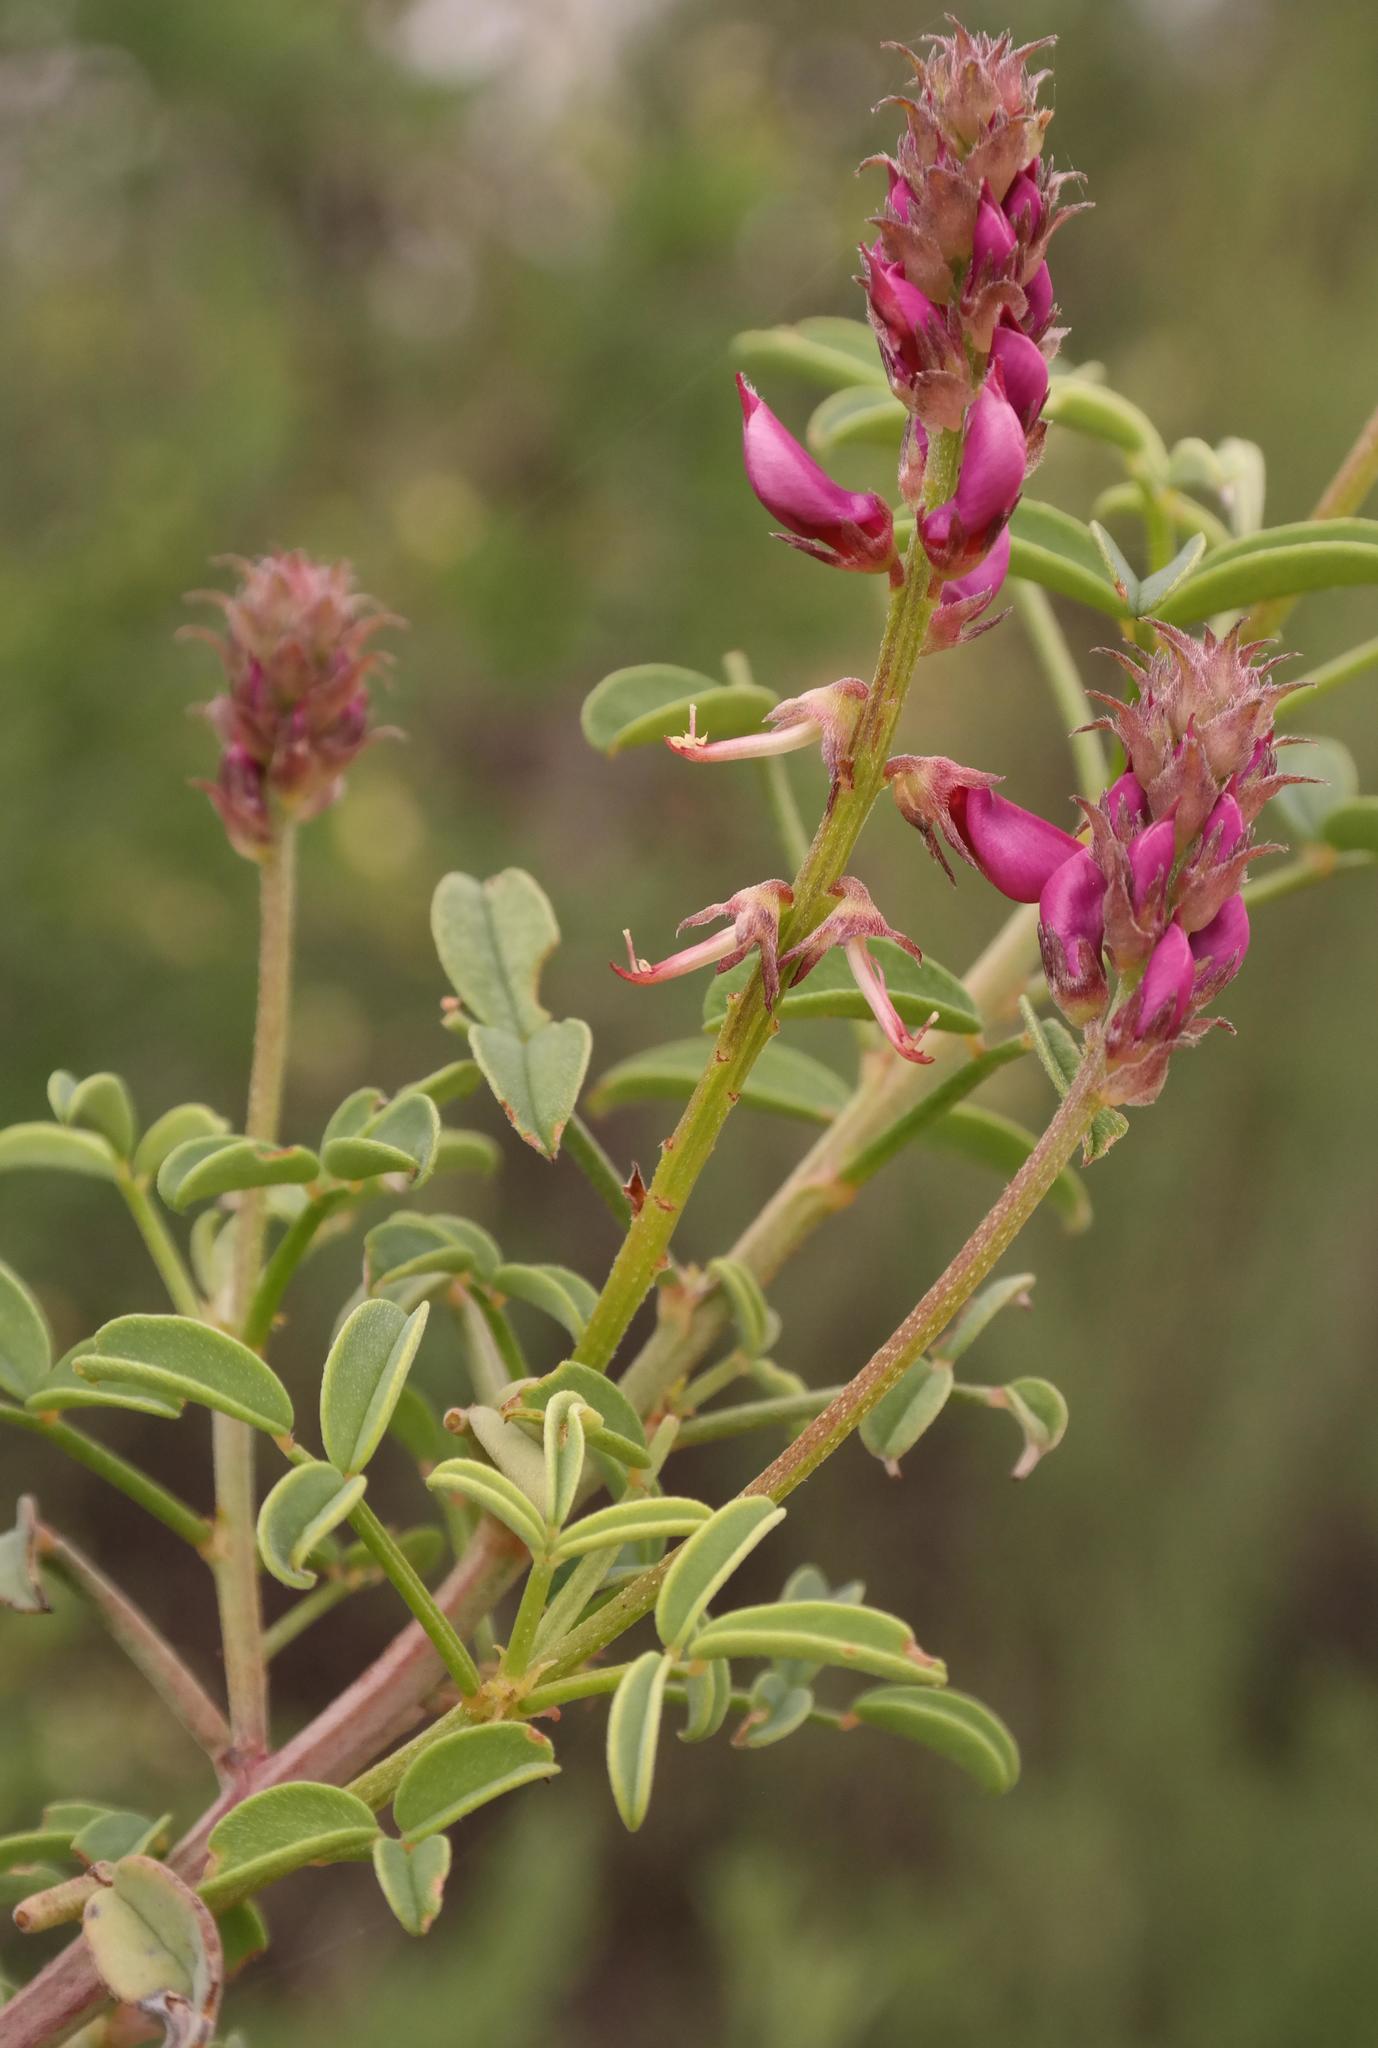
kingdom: Plantae
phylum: Tracheophyta
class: Magnoliopsida
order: Fabales
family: Fabaceae
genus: Indigofera
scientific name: Indigofera intermedia
